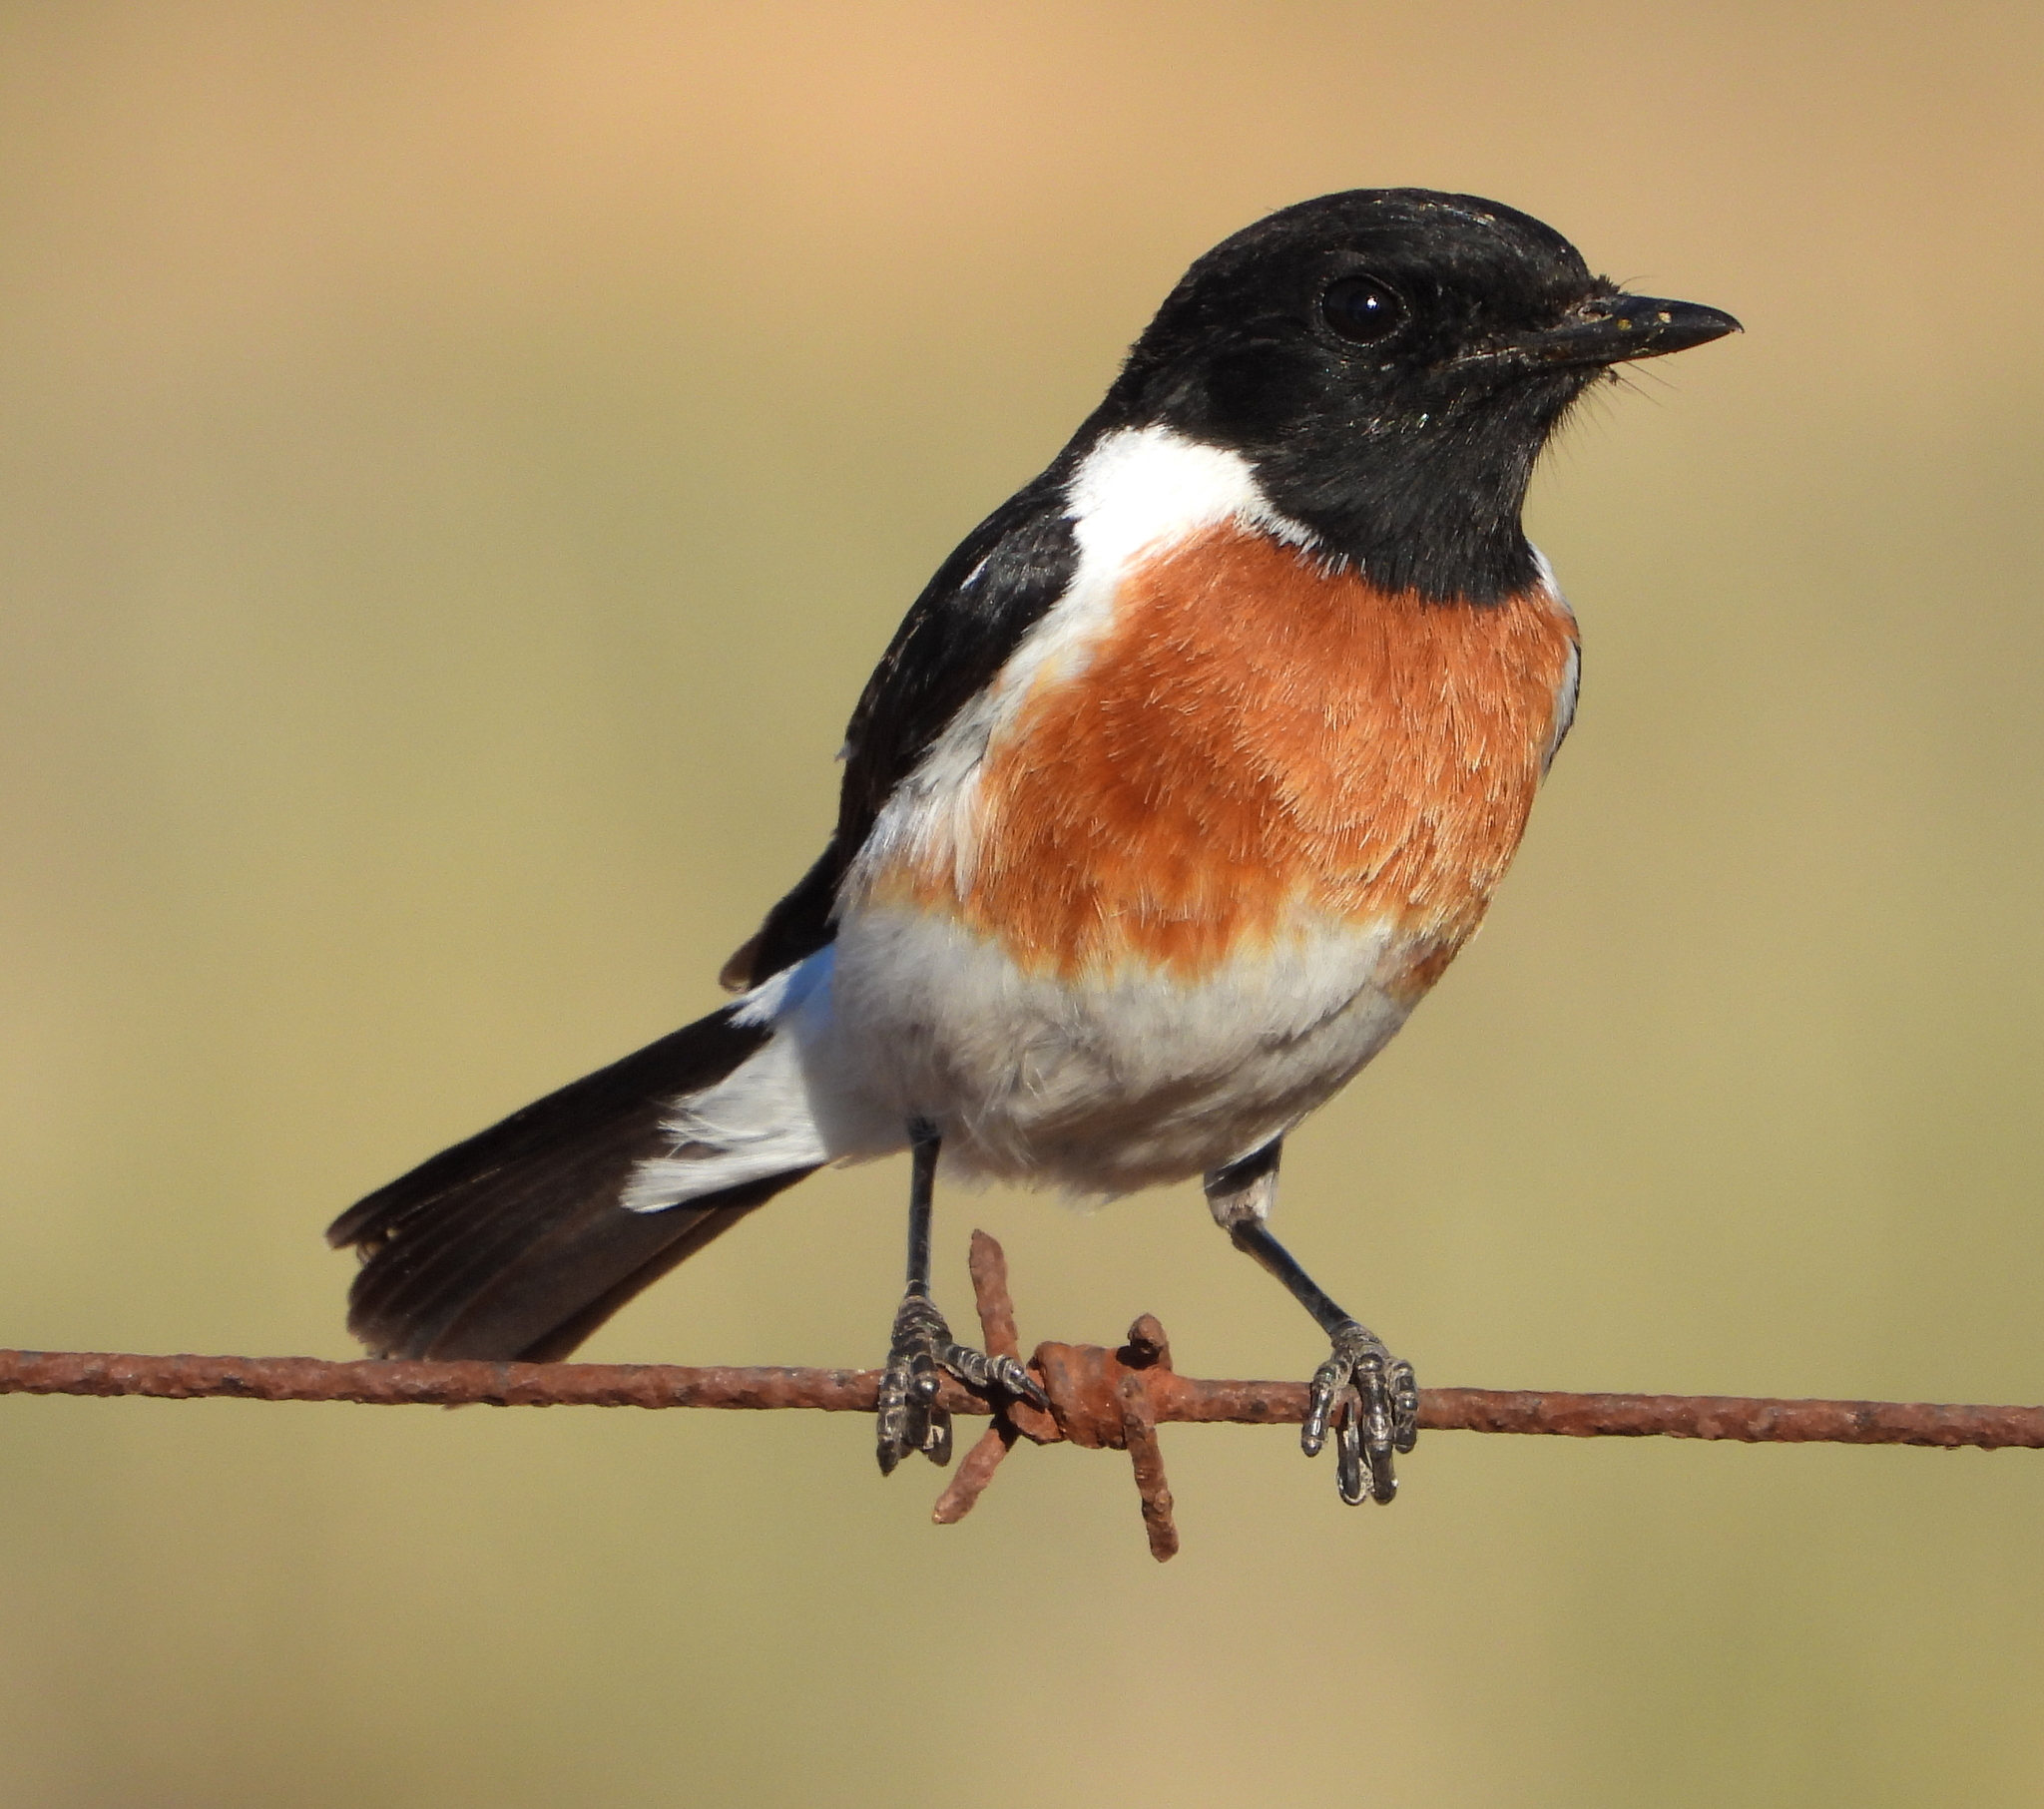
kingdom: Animalia
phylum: Chordata
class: Aves
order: Passeriformes
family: Muscicapidae
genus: Saxicola
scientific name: Saxicola torquatus
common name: African stonechat
